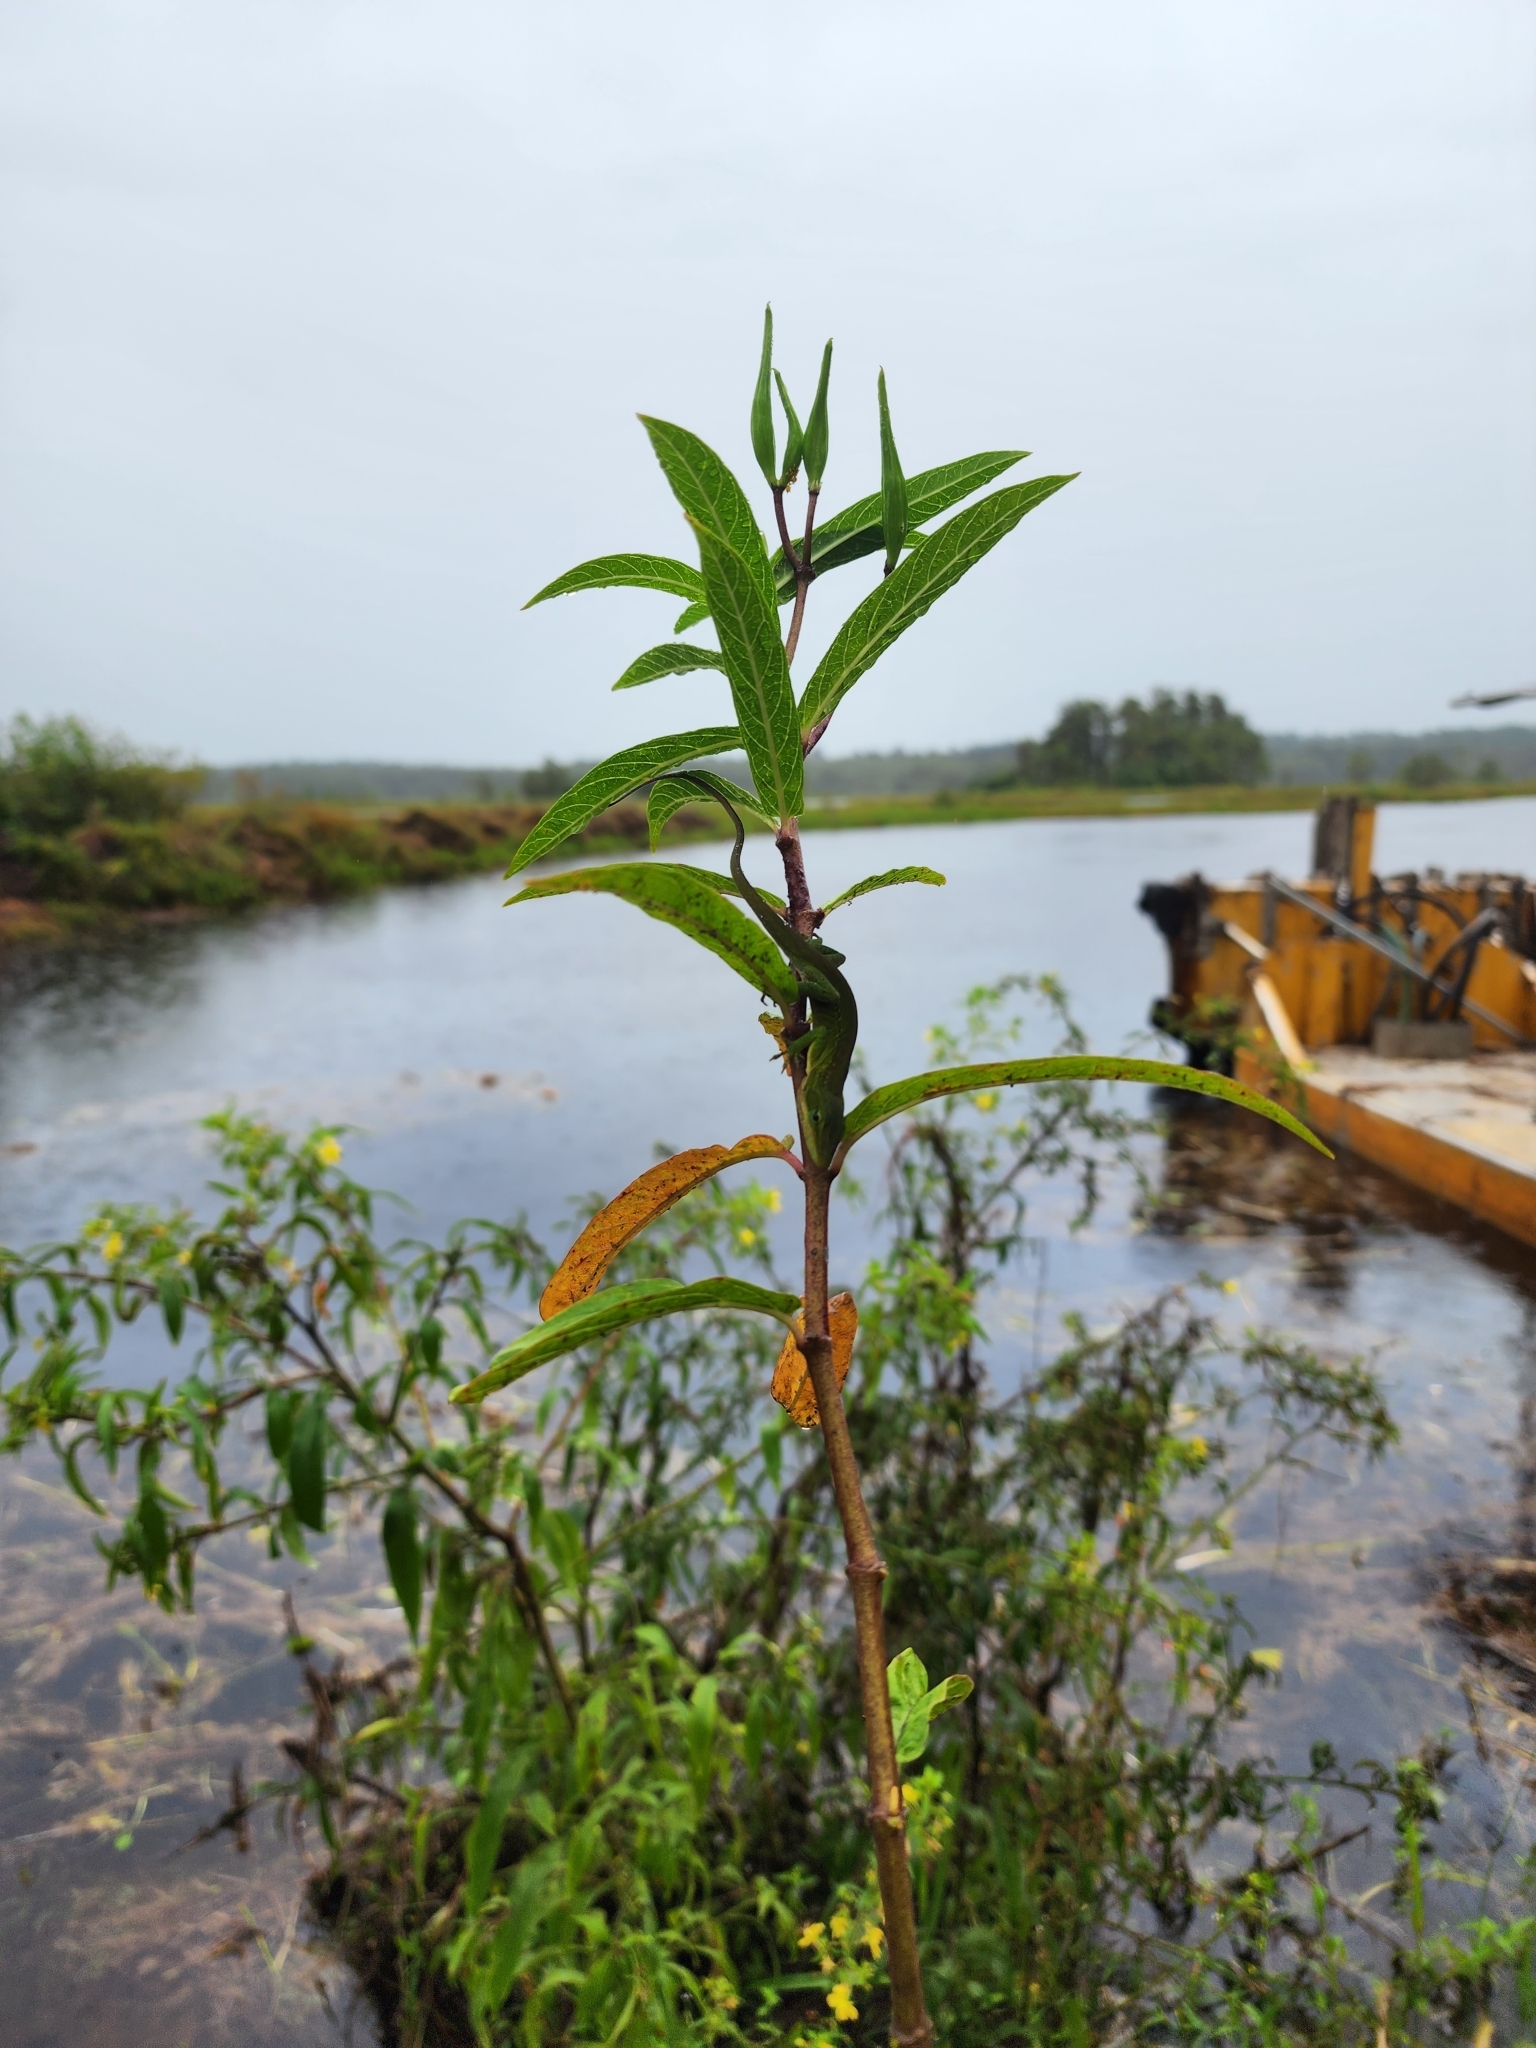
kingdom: Plantae
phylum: Tracheophyta
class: Magnoliopsida
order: Gentianales
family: Apocynaceae
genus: Asclepias
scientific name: Asclepias incarnata
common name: Swamp milkweed
